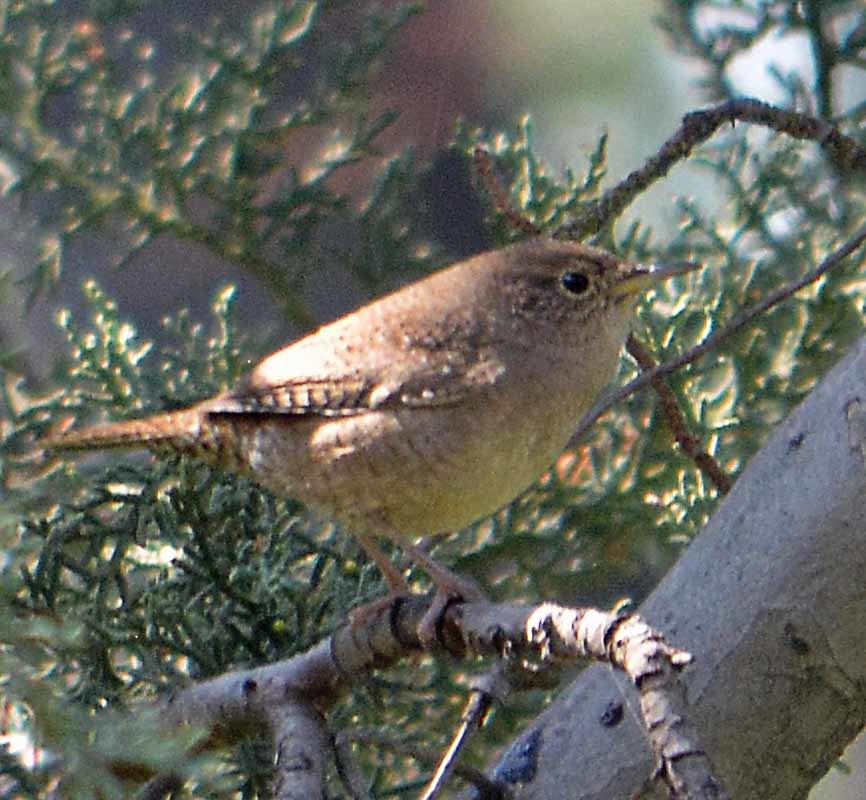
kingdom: Animalia
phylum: Chordata
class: Aves
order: Passeriformes
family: Troglodytidae
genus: Troglodytes
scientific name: Troglodytes aedon
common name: House wren
